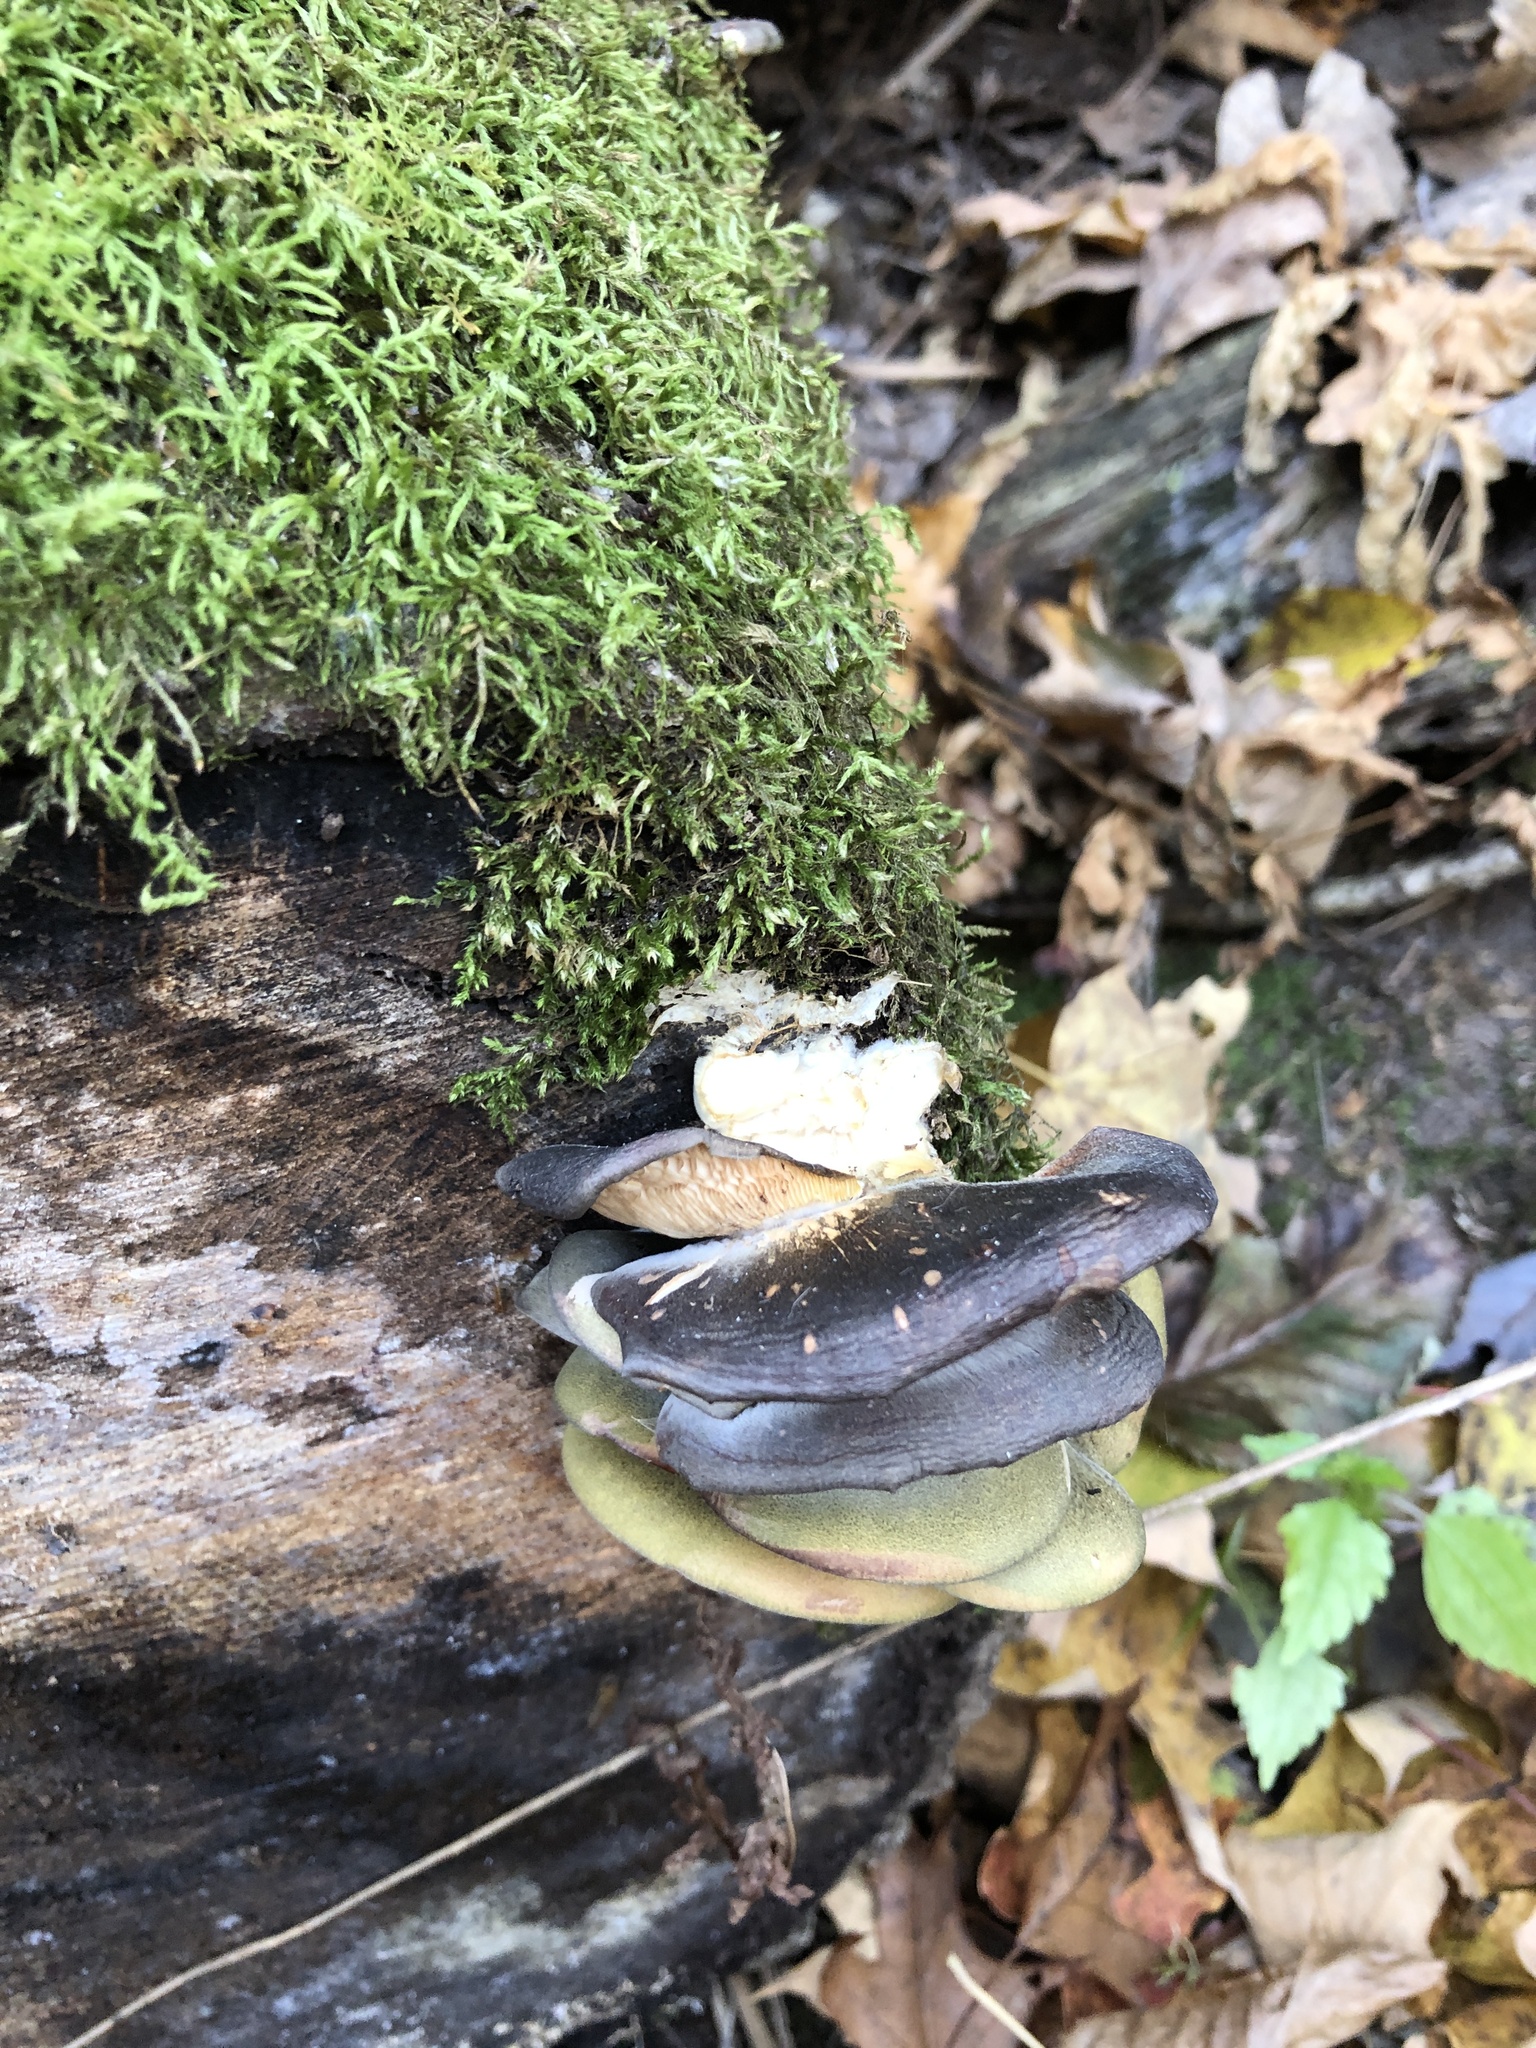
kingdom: Fungi
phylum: Basidiomycota
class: Agaricomycetes
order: Agaricales
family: Sarcomyxaceae
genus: Sarcomyxa
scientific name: Sarcomyxa serotina
